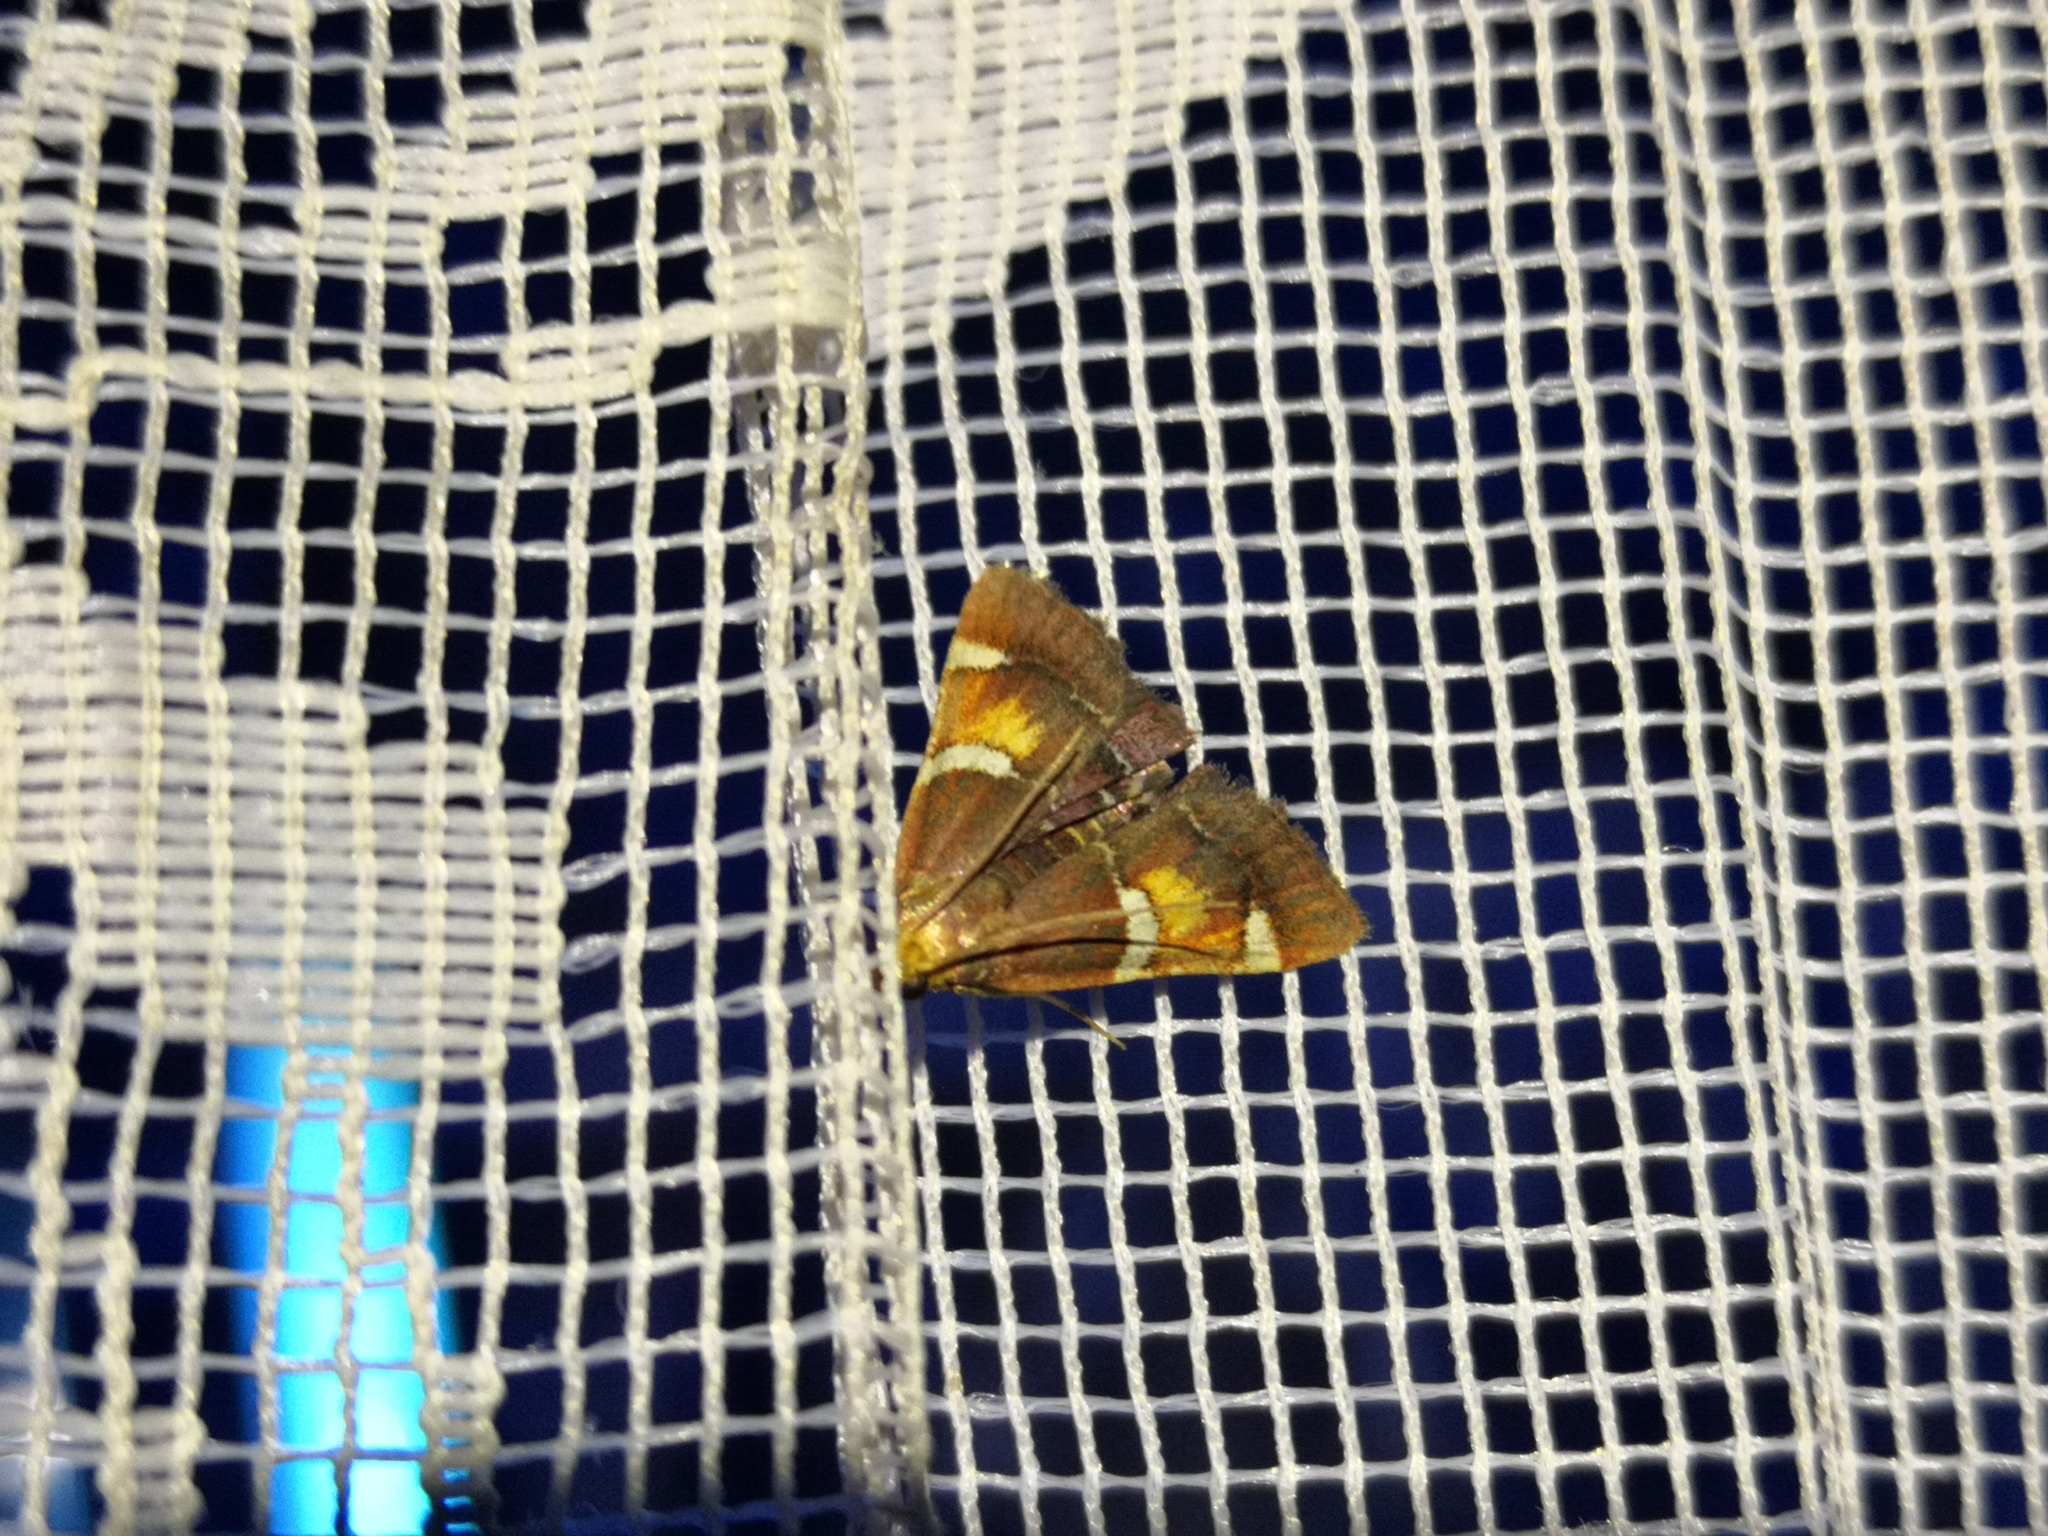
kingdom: Animalia
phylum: Arthropoda
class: Insecta
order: Lepidoptera
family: Pyralidae
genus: Pyralis
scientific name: Pyralis regalis
